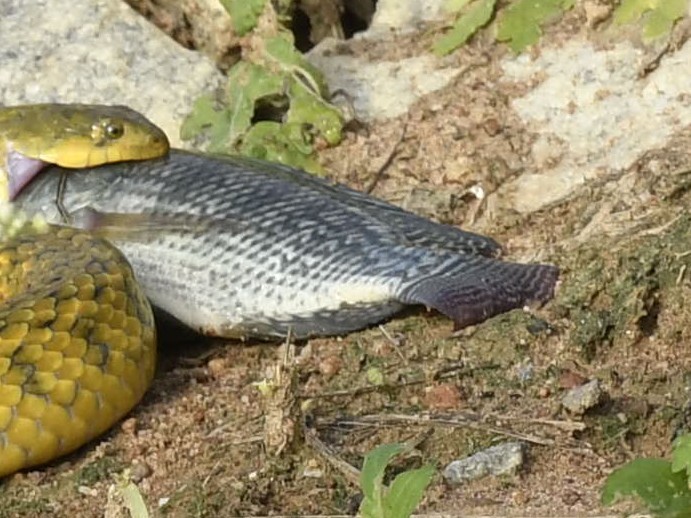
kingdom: Animalia
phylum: Chordata
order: Perciformes
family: Cichlidae
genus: Oreochromis
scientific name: Oreochromis niloticus
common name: Nile tilapia
